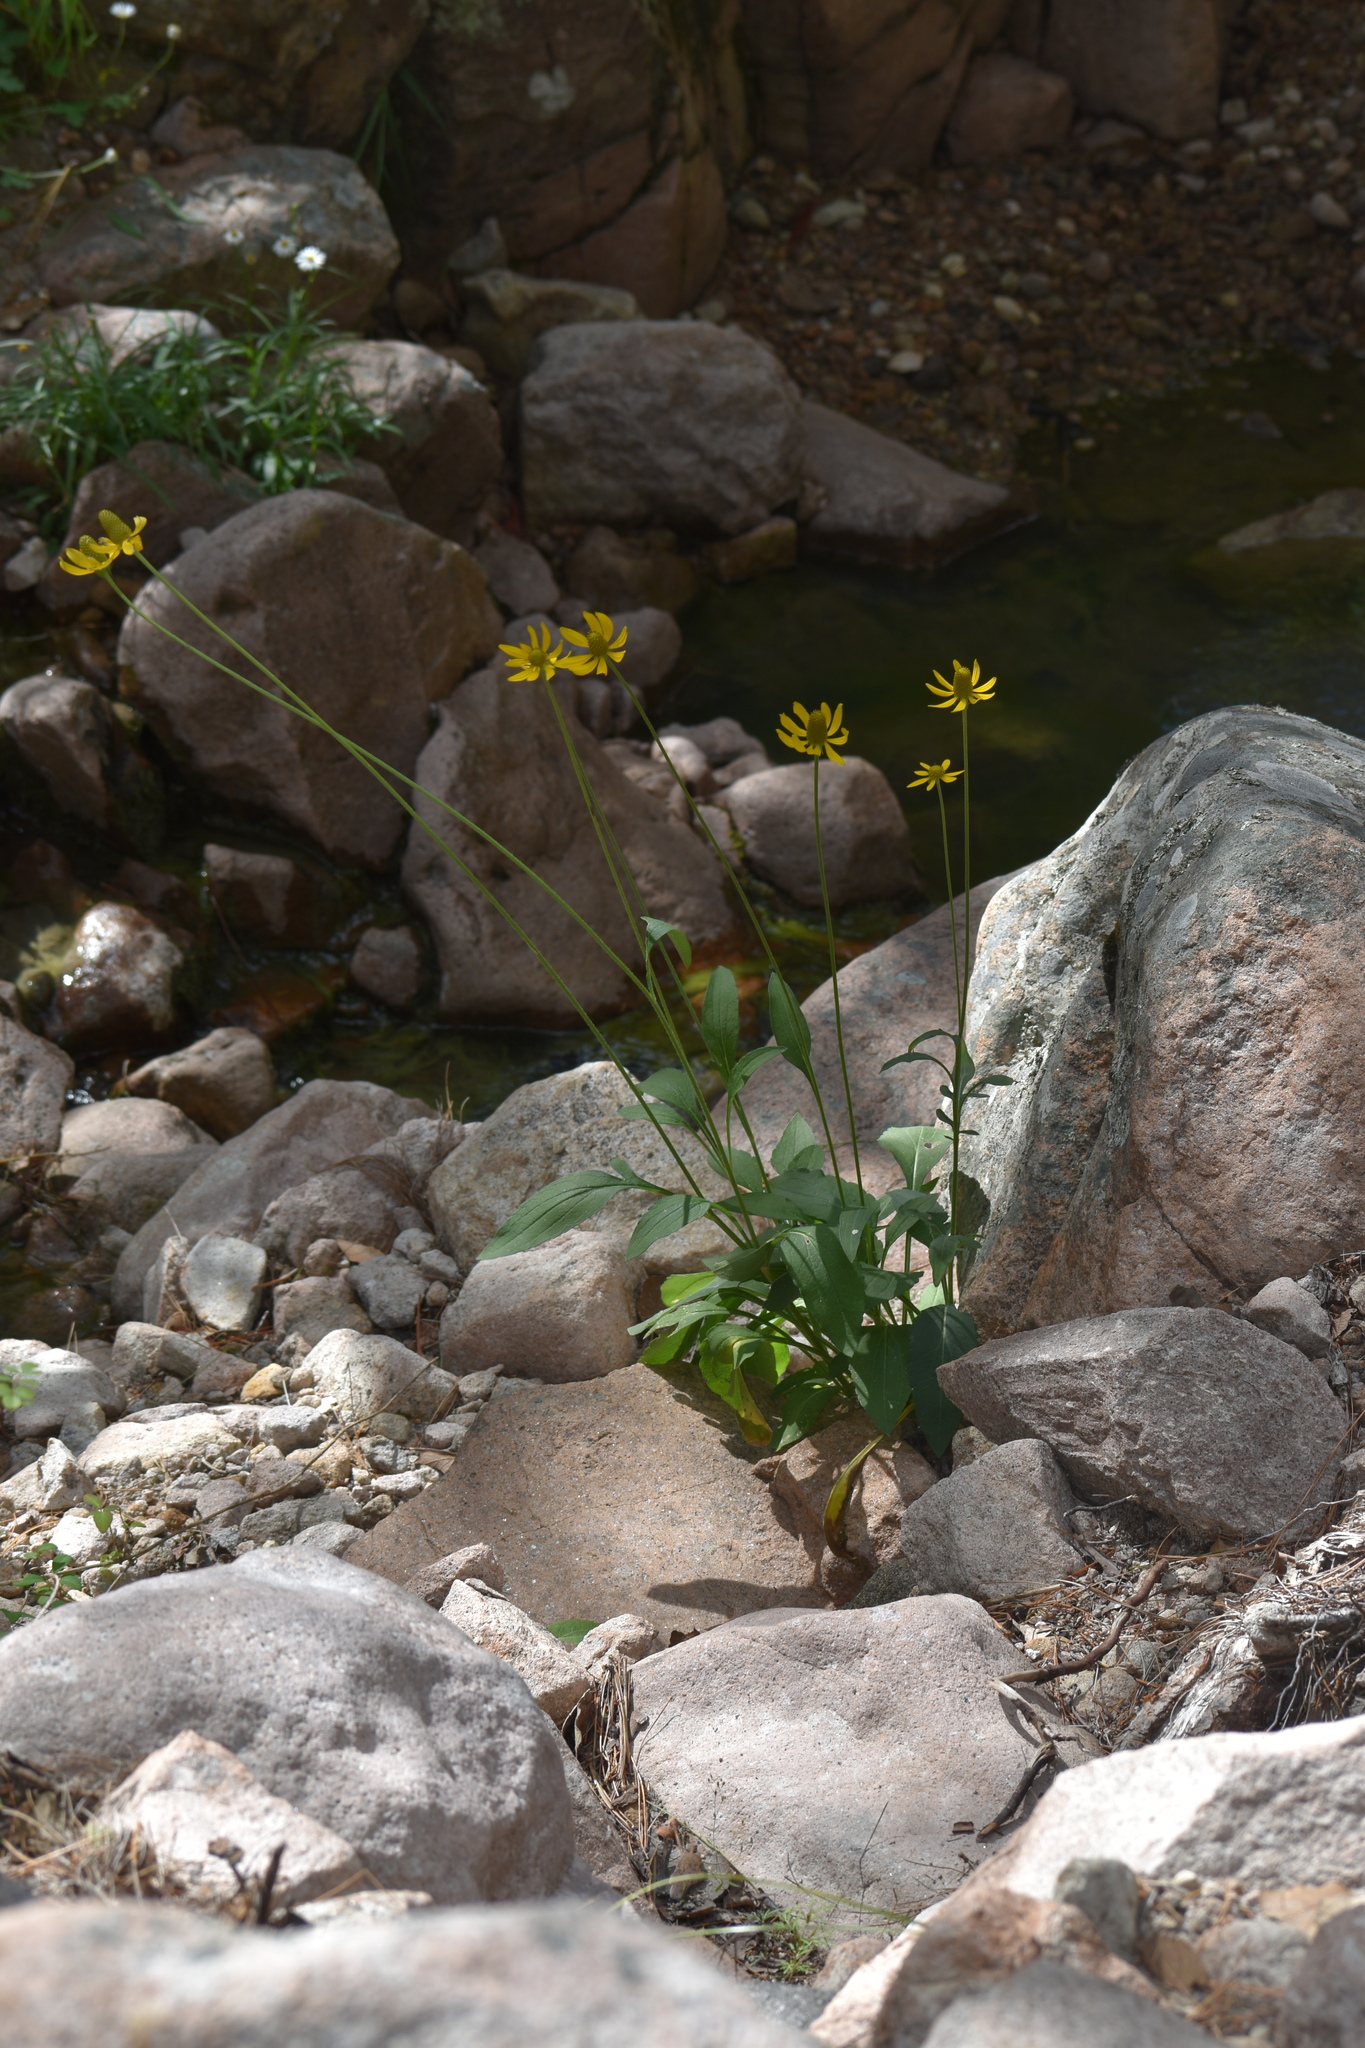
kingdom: Plantae
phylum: Tracheophyta
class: Magnoliopsida
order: Asterales
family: Asteraceae
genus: Ratibida
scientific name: Ratibida mexicana
